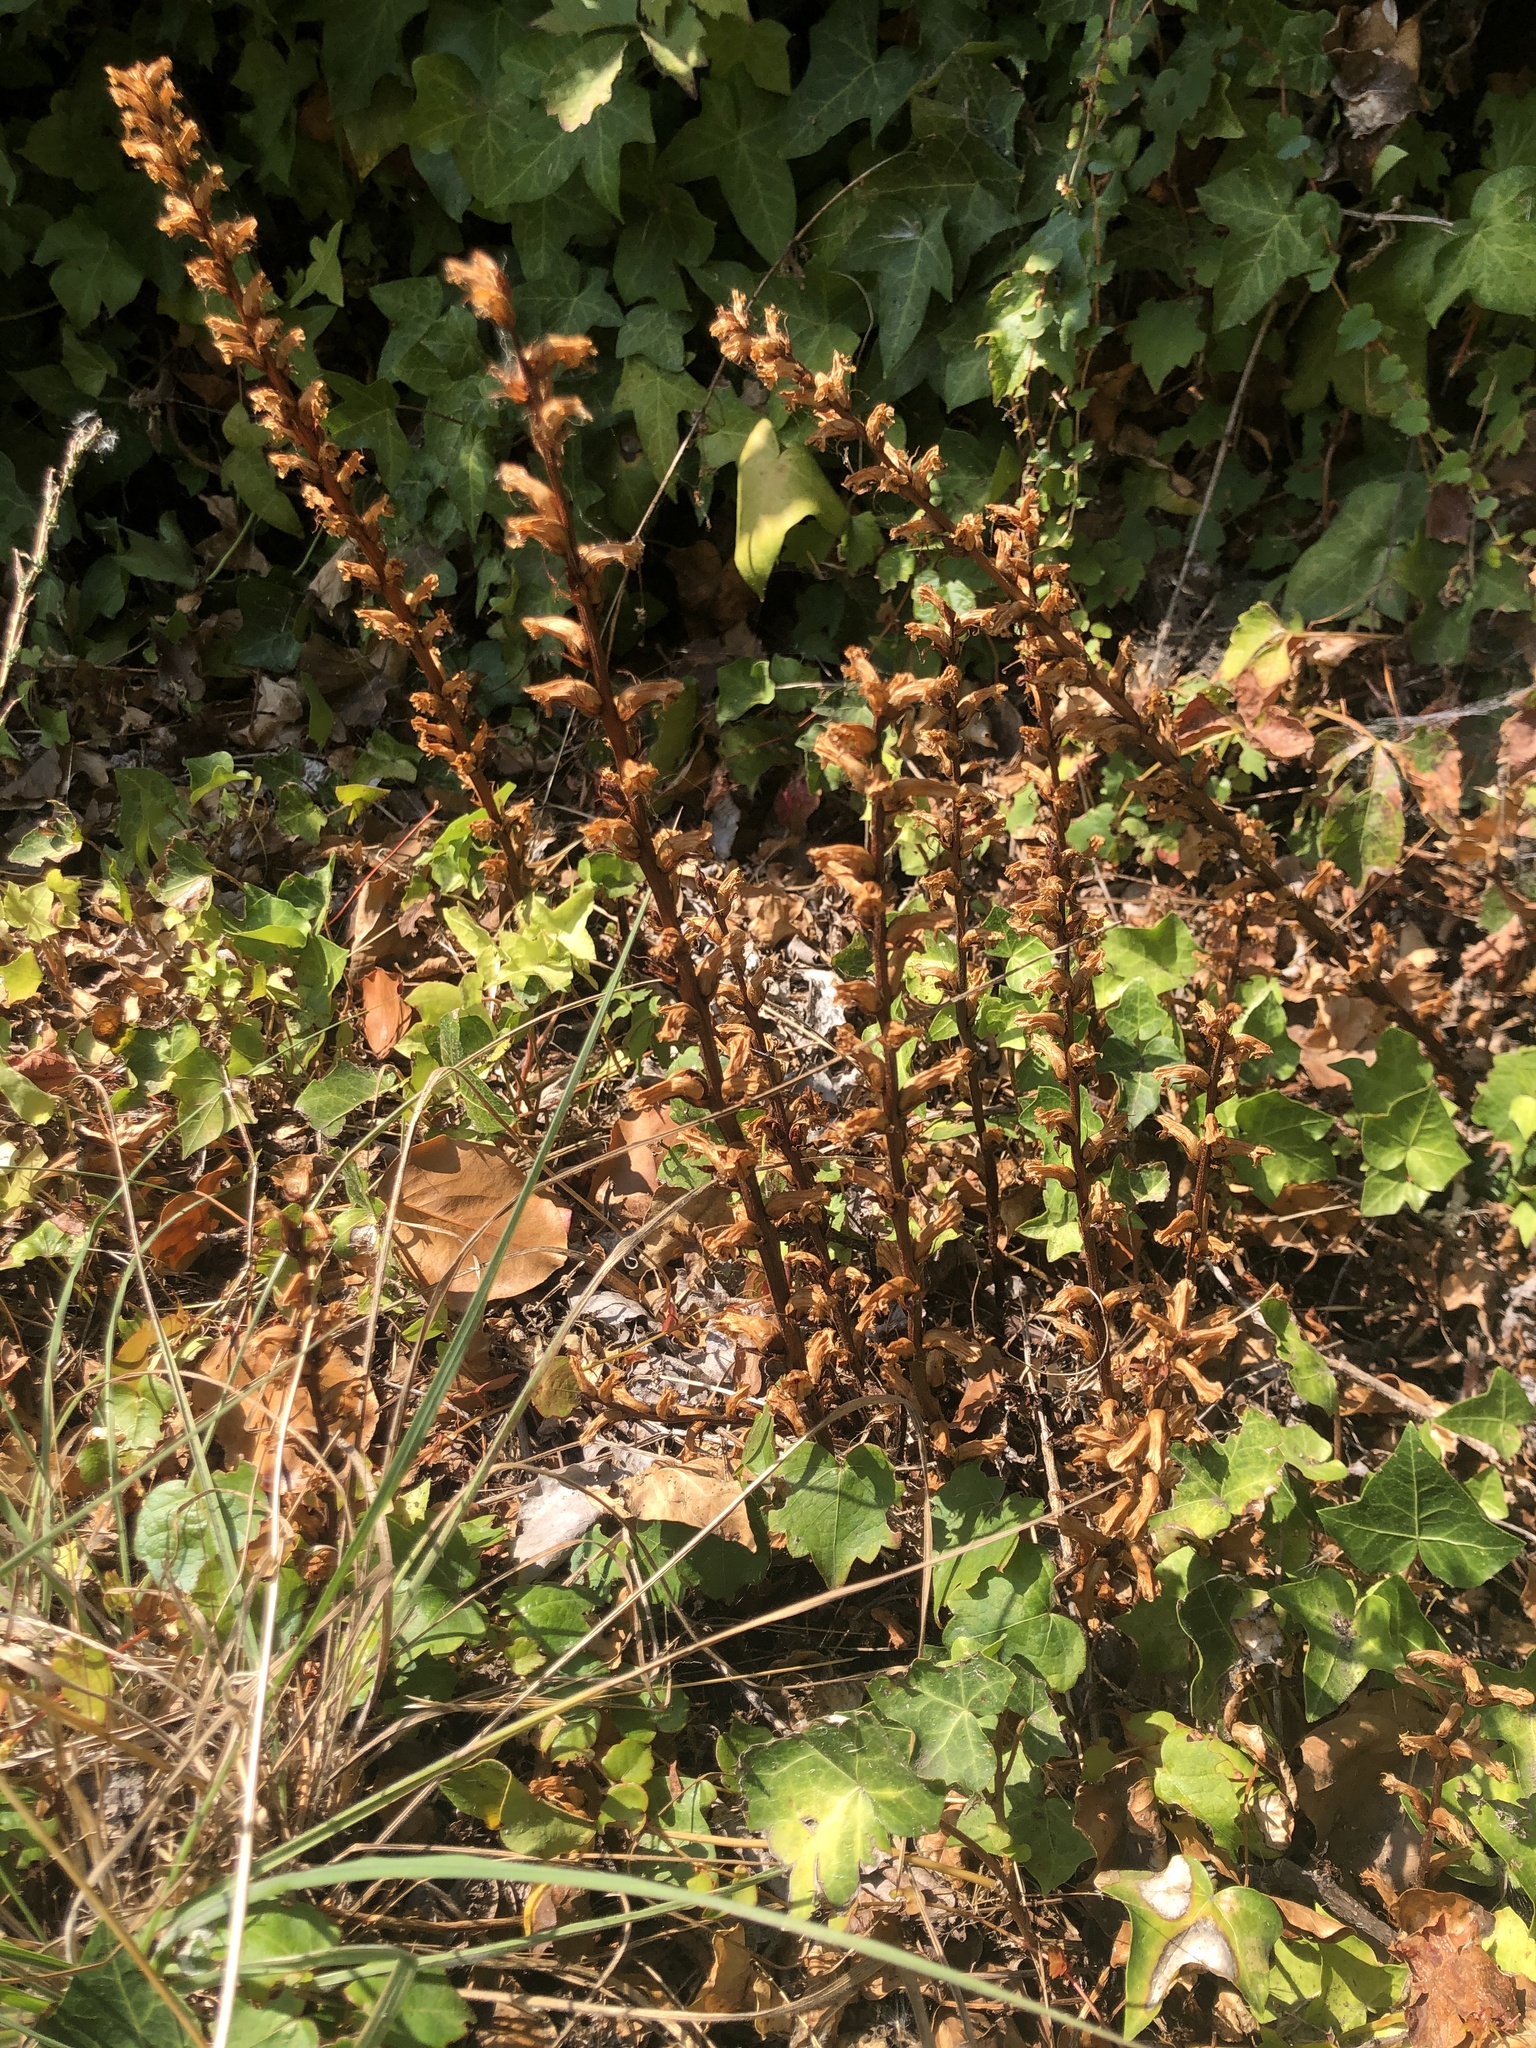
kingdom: Plantae
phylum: Tracheophyta
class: Magnoliopsida
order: Lamiales
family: Orobanchaceae
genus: Orobanche
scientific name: Orobanche hederae
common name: Ivy broomrape
